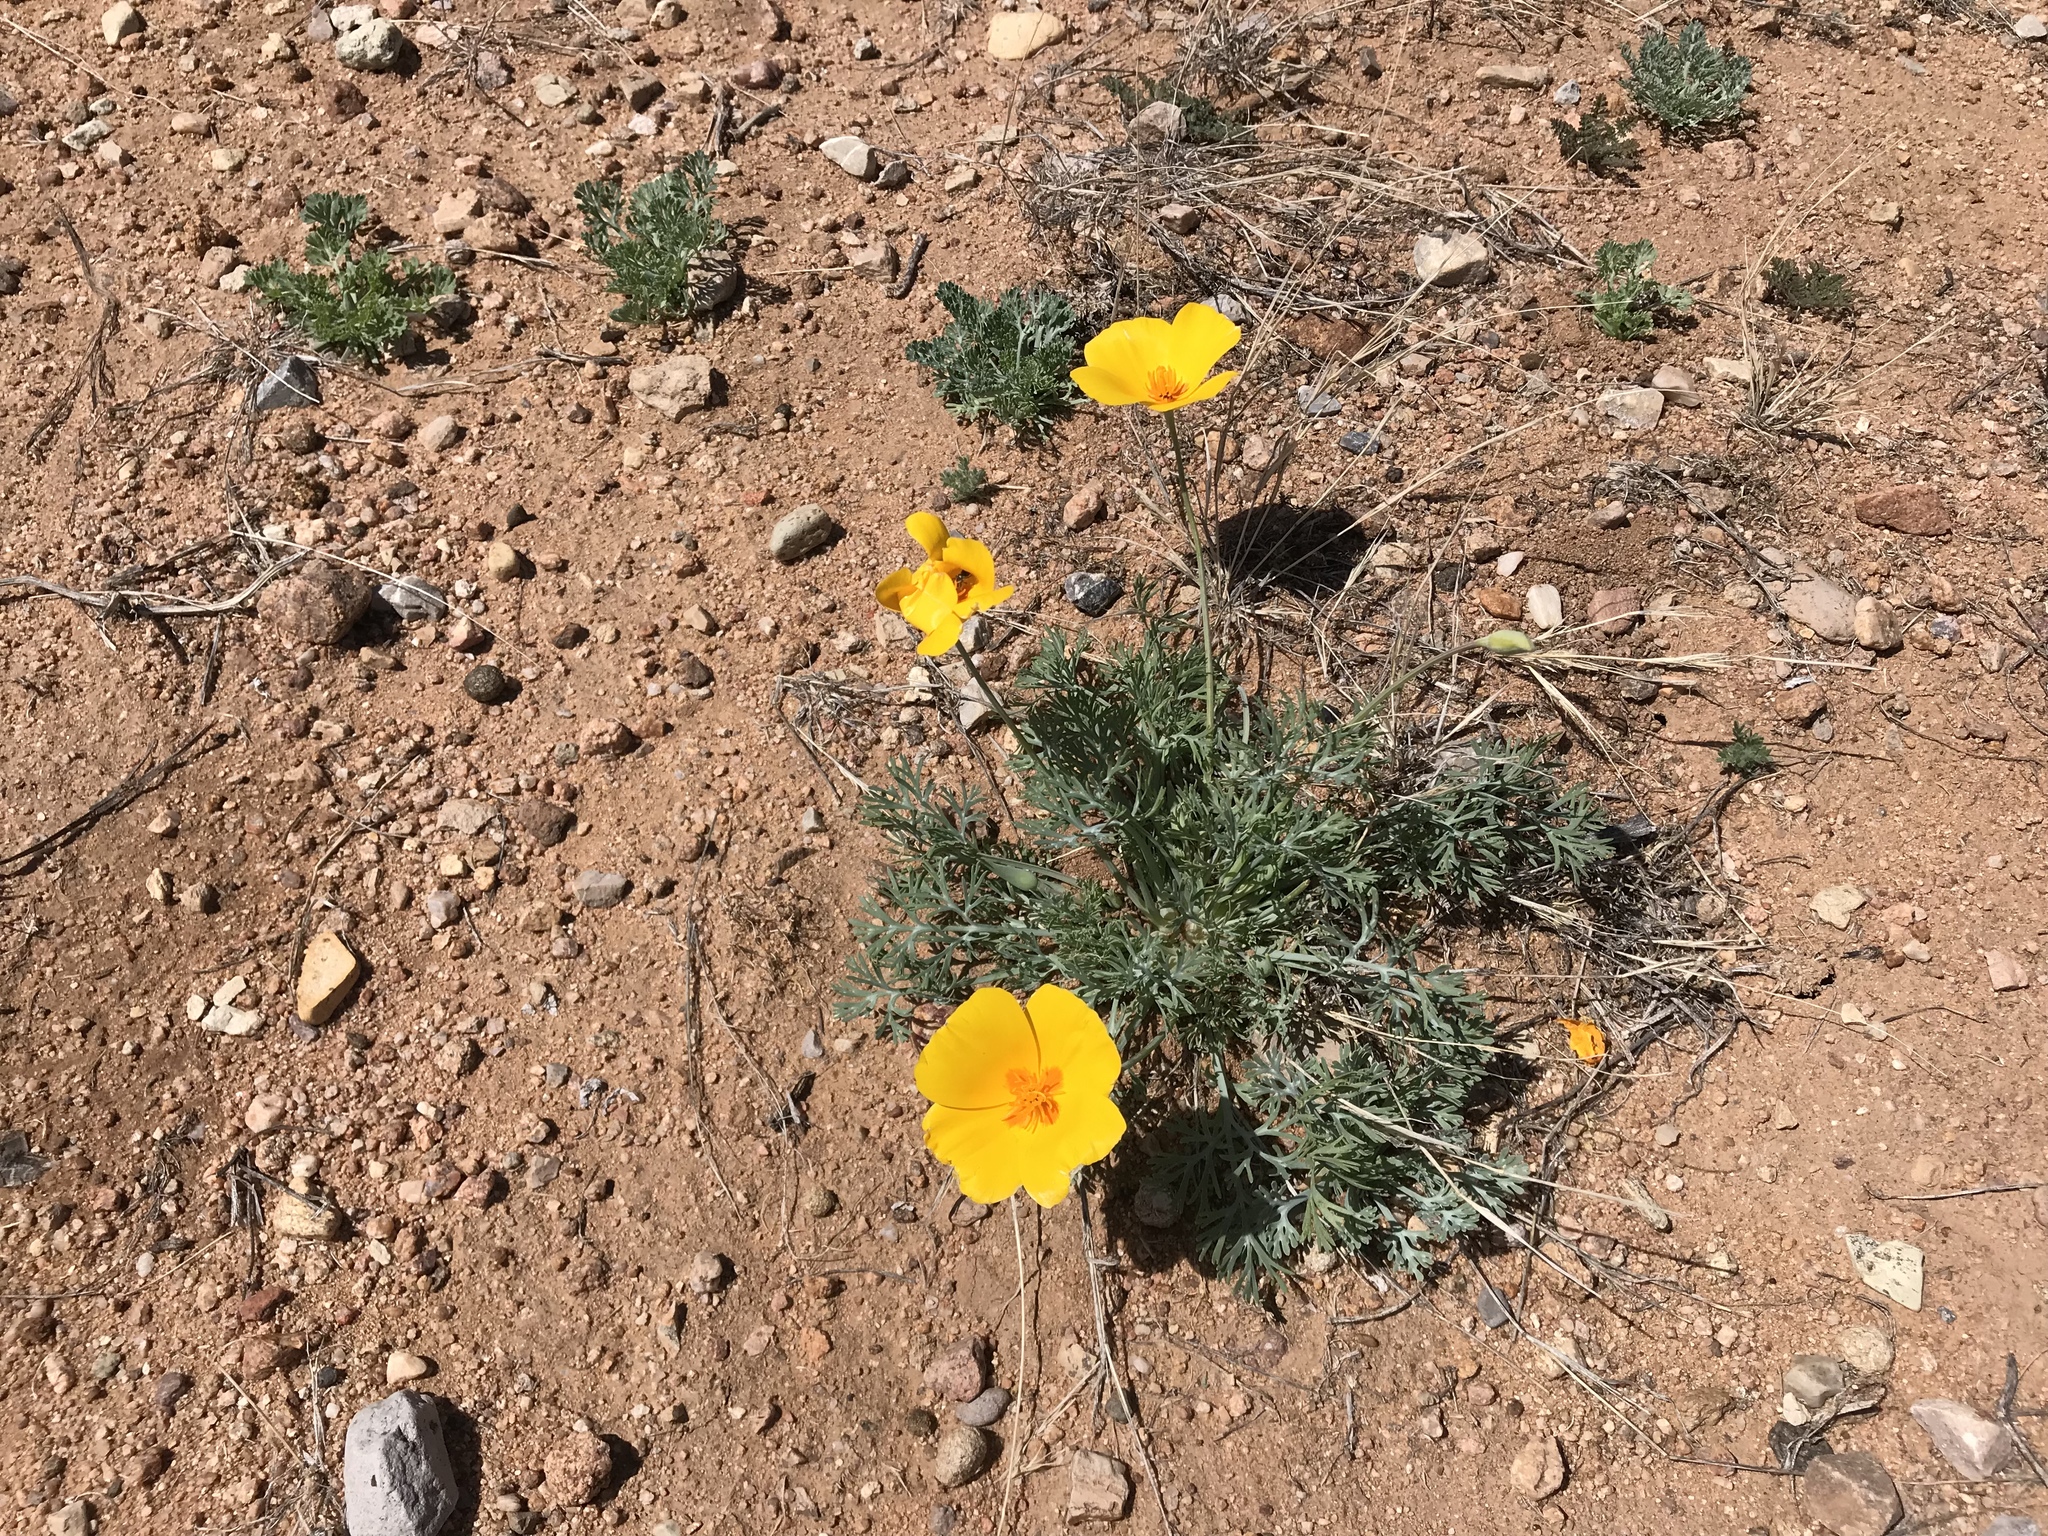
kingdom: Plantae
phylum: Tracheophyta
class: Magnoliopsida
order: Ranunculales
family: Papaveraceae
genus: Eschscholzia
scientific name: Eschscholzia californica
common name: California poppy
